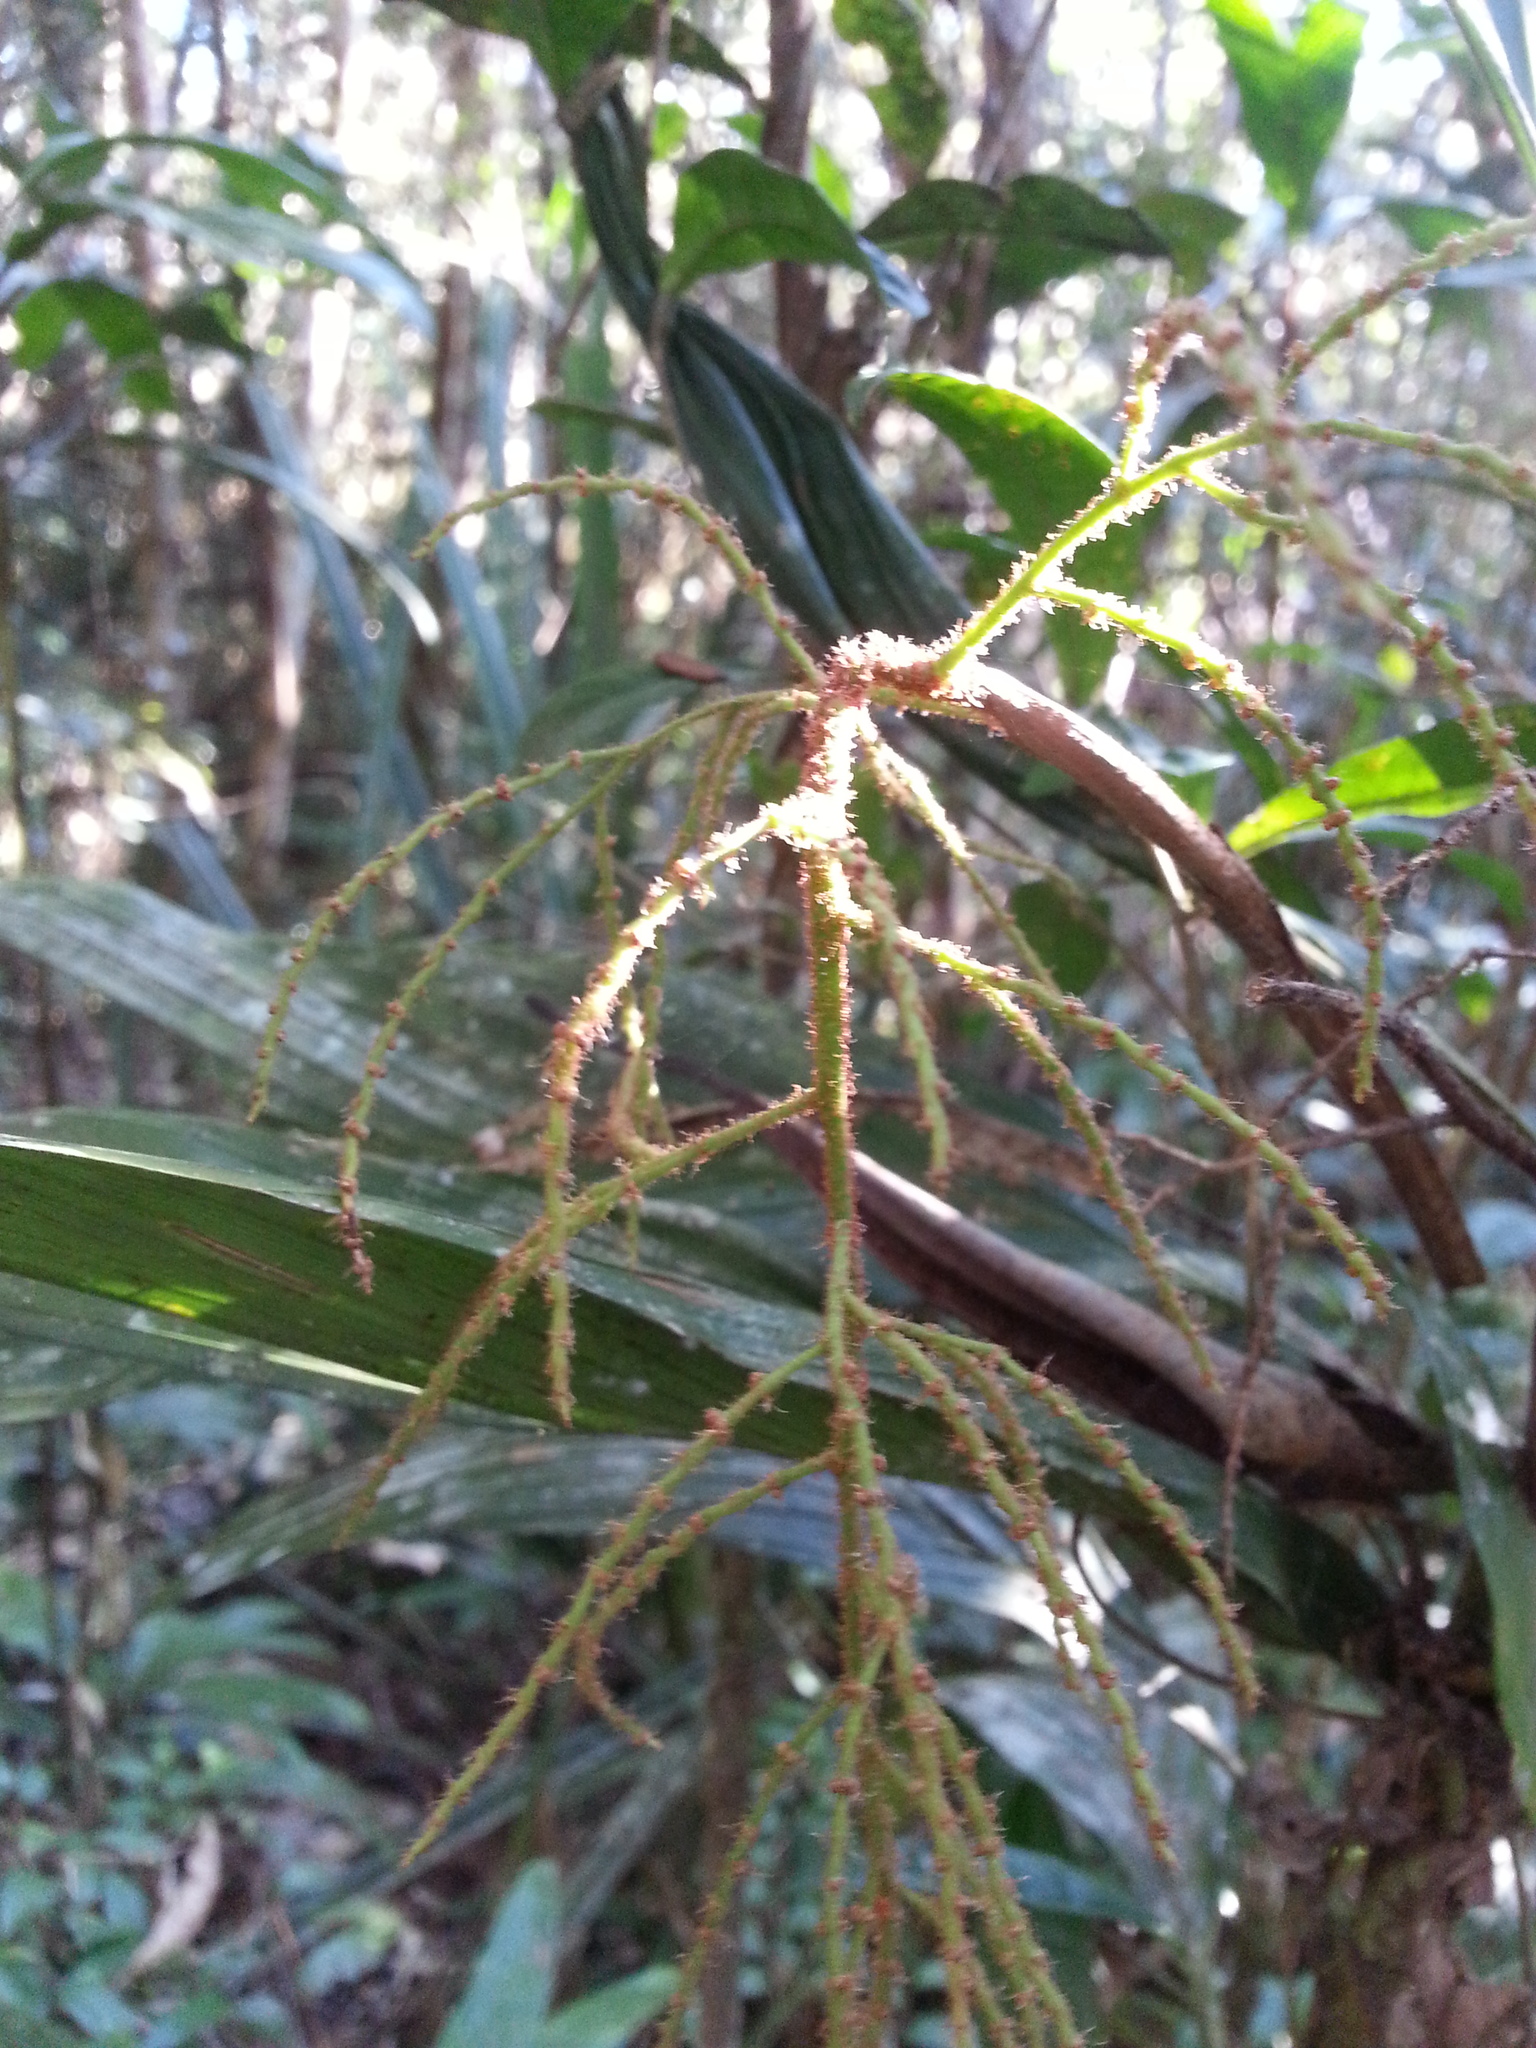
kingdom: Plantae
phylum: Tracheophyta
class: Liliopsida
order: Arecales
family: Arecaceae
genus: Dypsis
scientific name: Dypsis hildebrandtii
